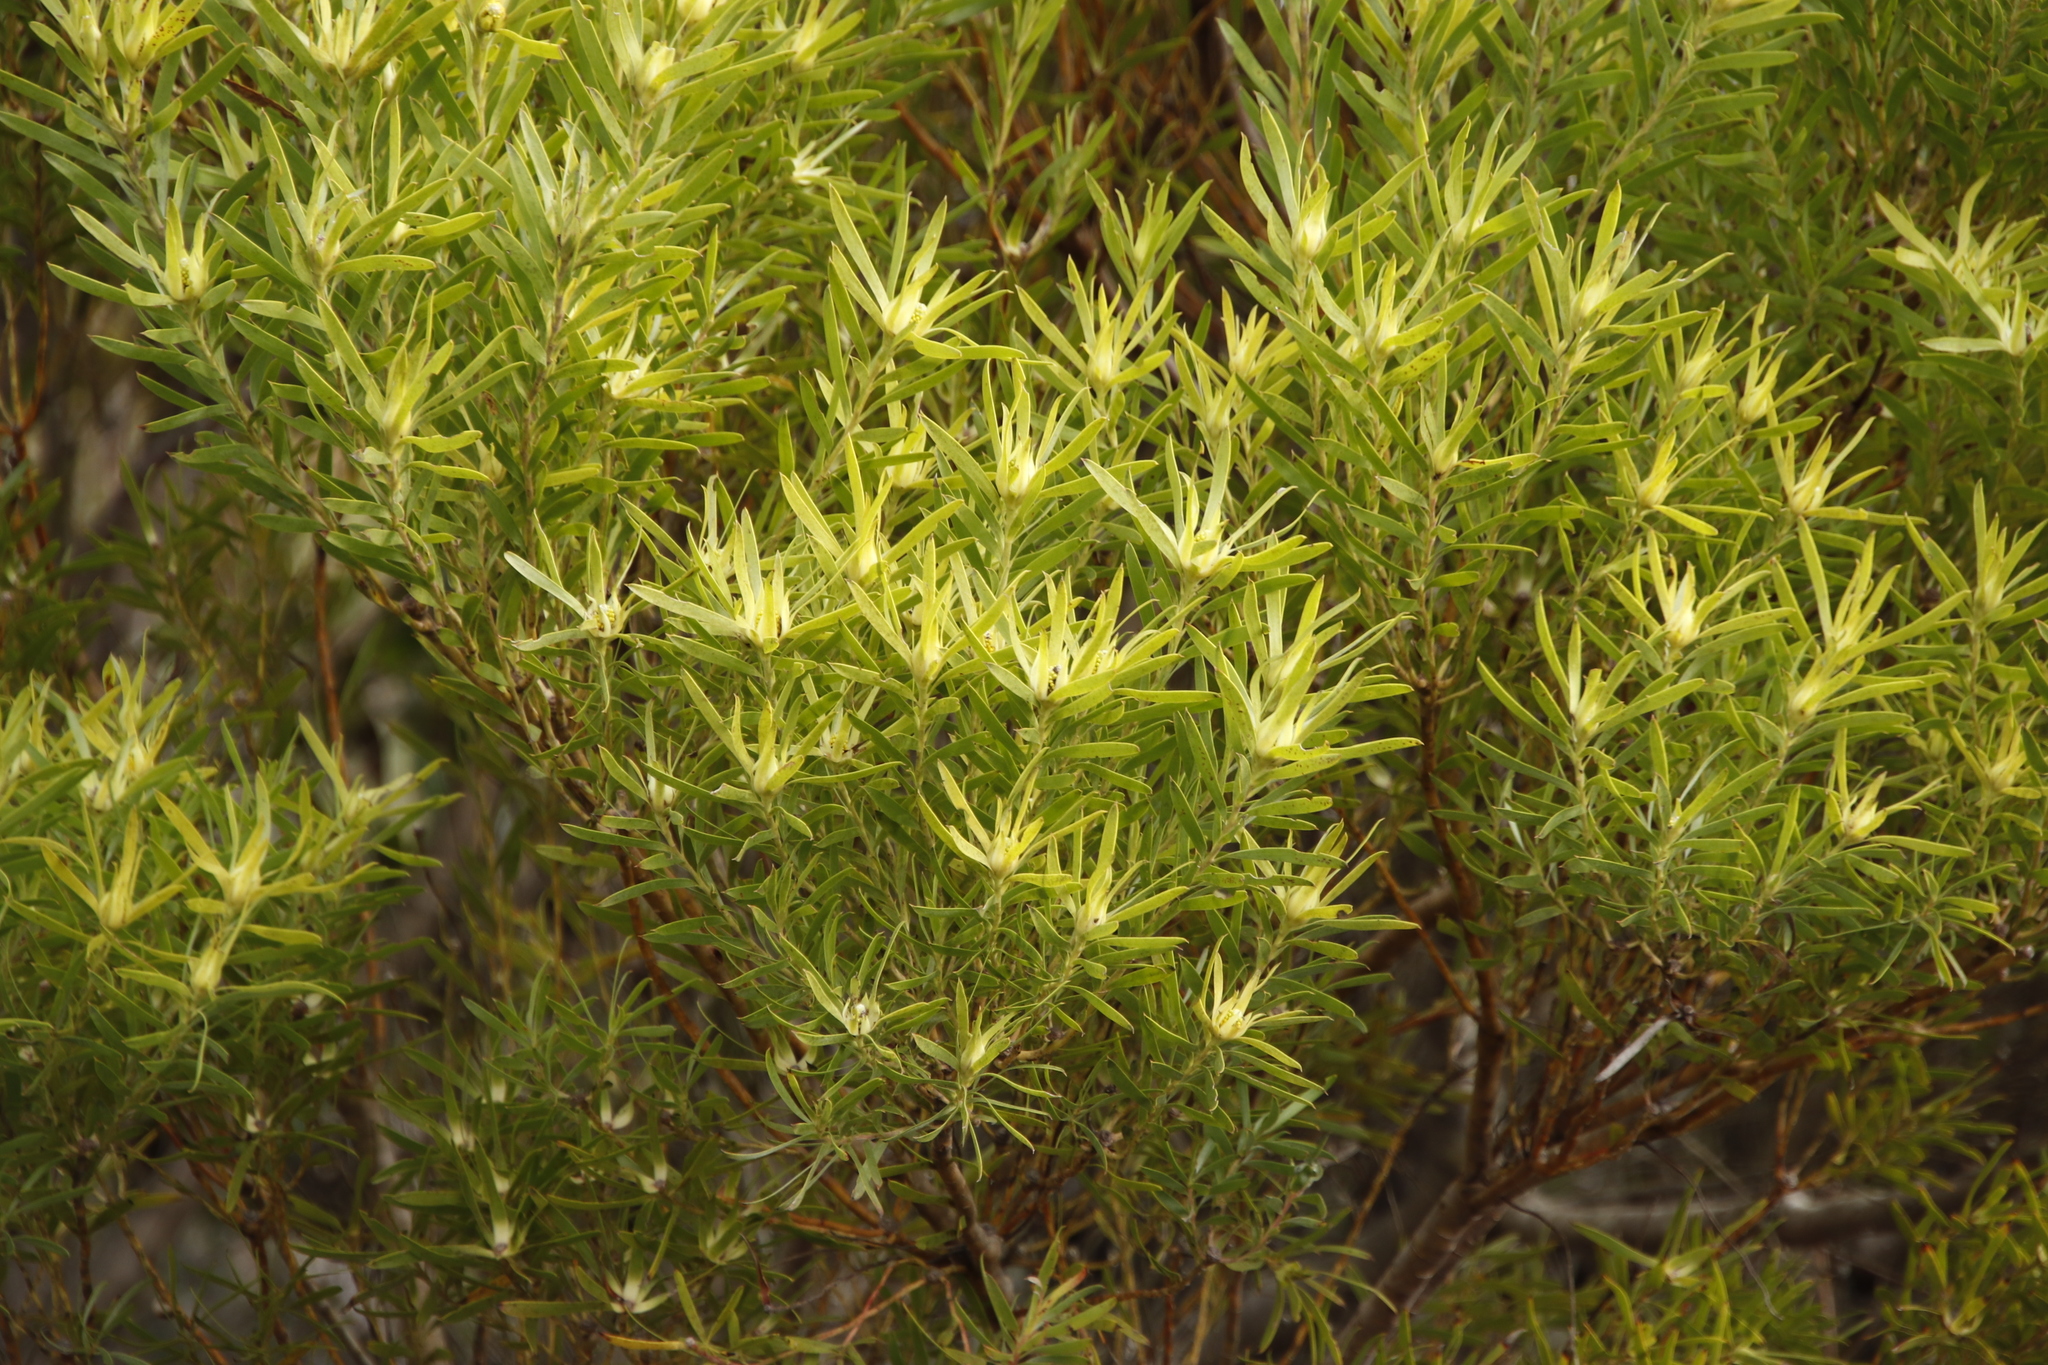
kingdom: Plantae
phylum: Tracheophyta
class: Magnoliopsida
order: Proteales
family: Proteaceae
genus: Leucadendron
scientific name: Leucadendron coniferum
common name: Dune conebush
